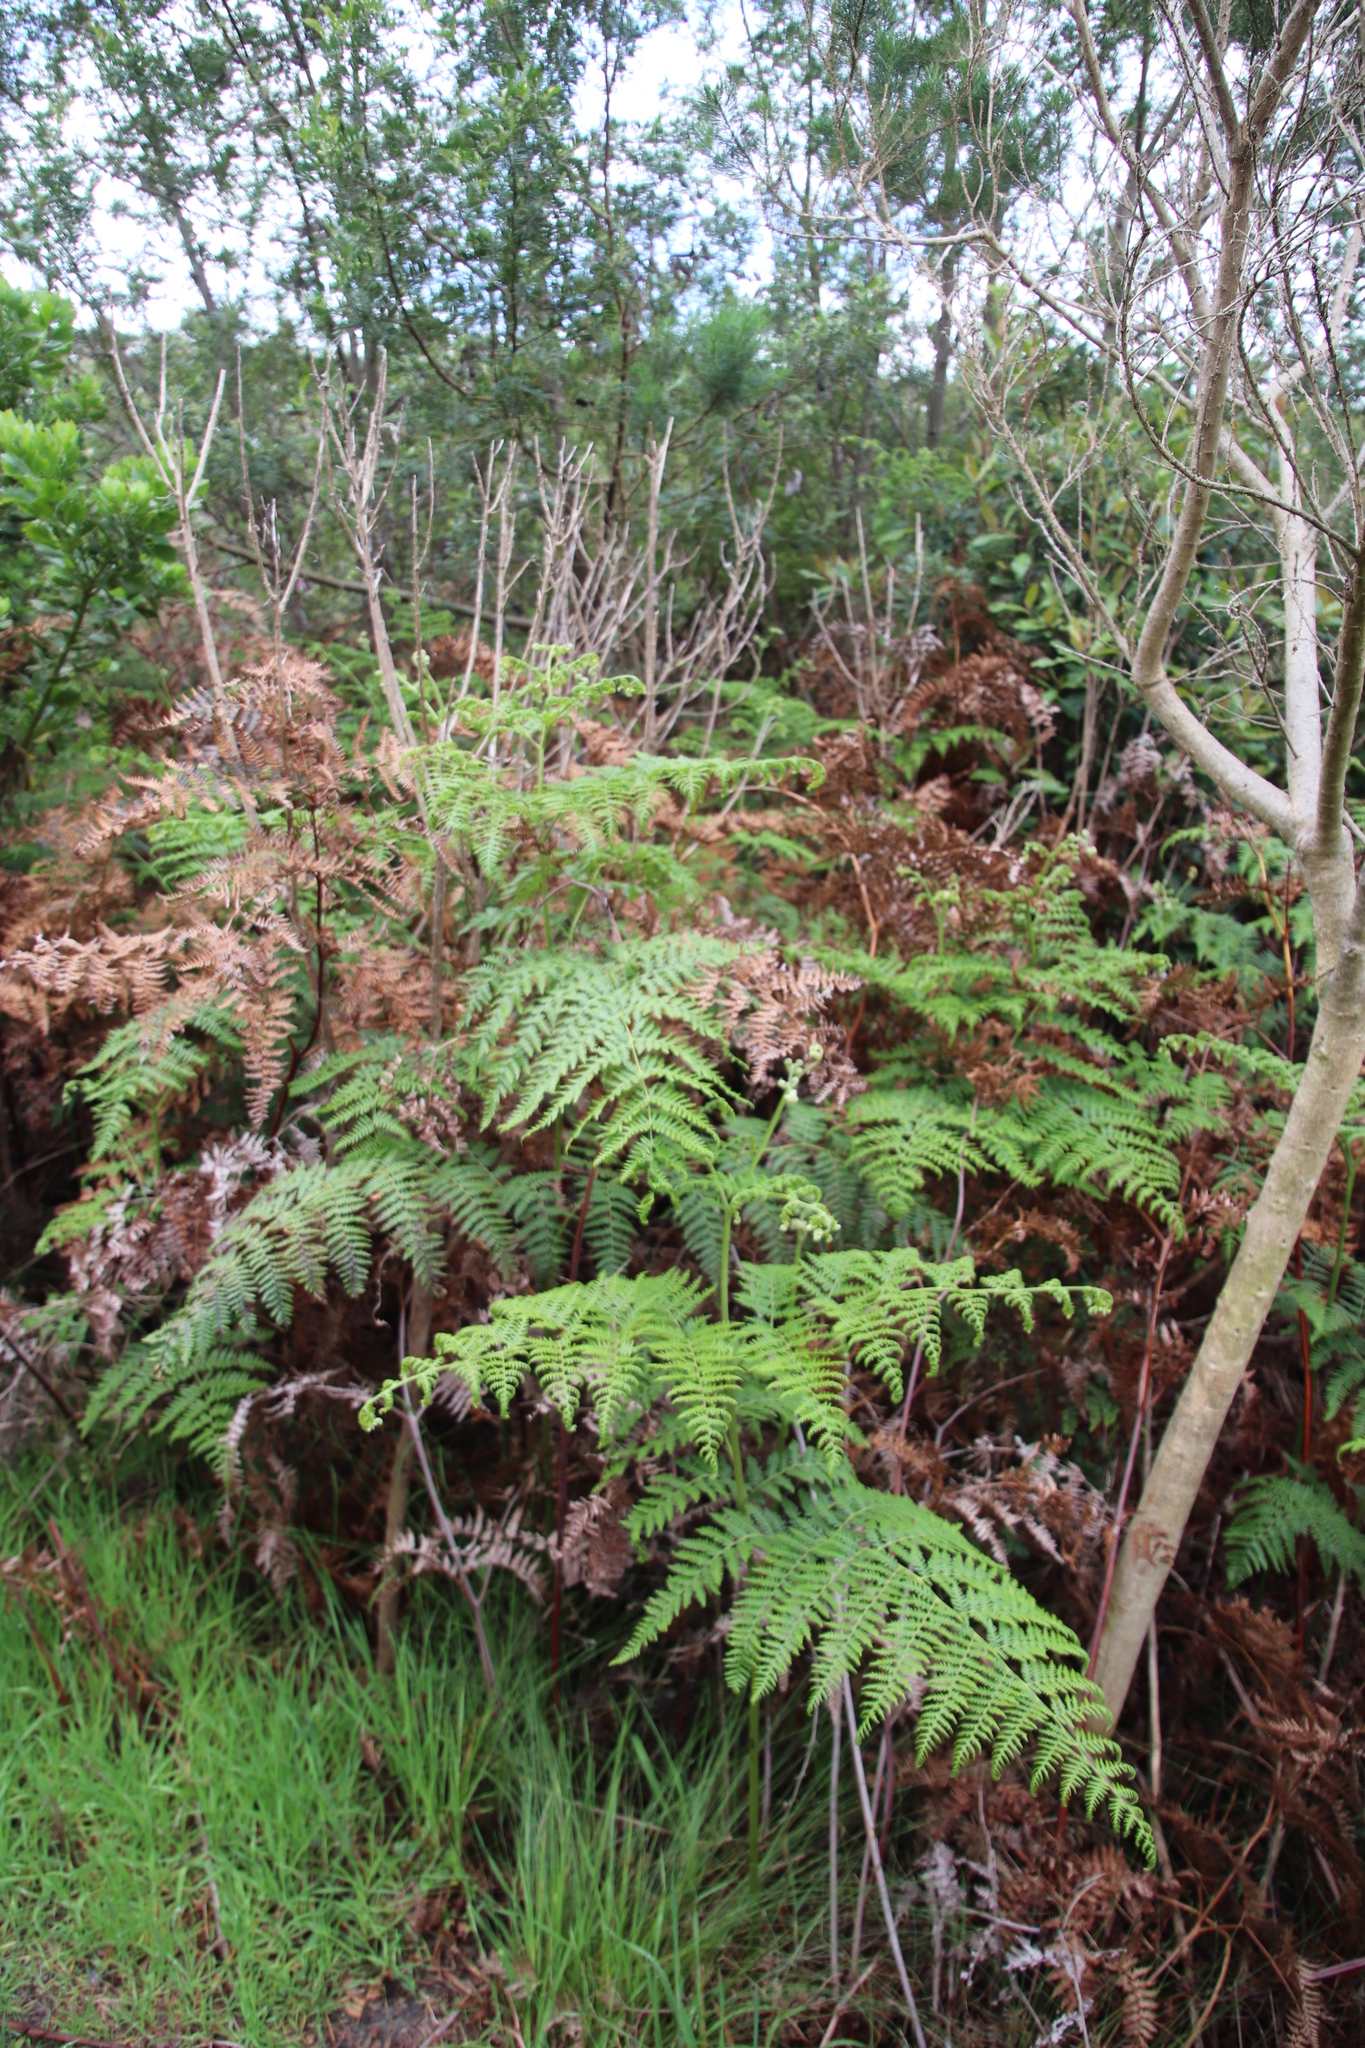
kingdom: Plantae
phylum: Tracheophyta
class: Polypodiopsida
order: Polypodiales
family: Dennstaedtiaceae
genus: Pteridium
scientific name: Pteridium aquilinum
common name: Bracken
